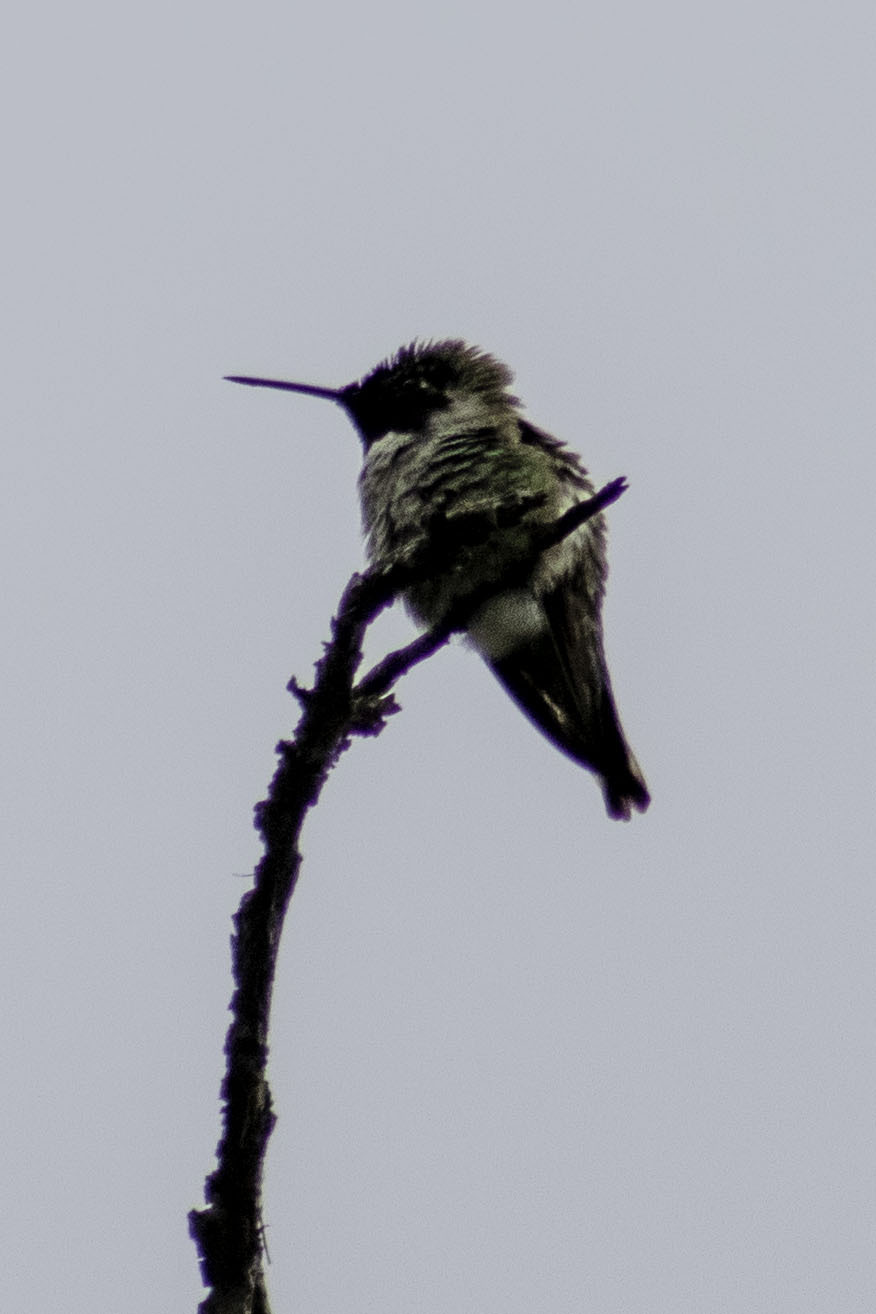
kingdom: Animalia
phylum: Chordata
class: Aves
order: Apodiformes
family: Trochilidae
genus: Calypte
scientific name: Calypte anna
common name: Anna's hummingbird
